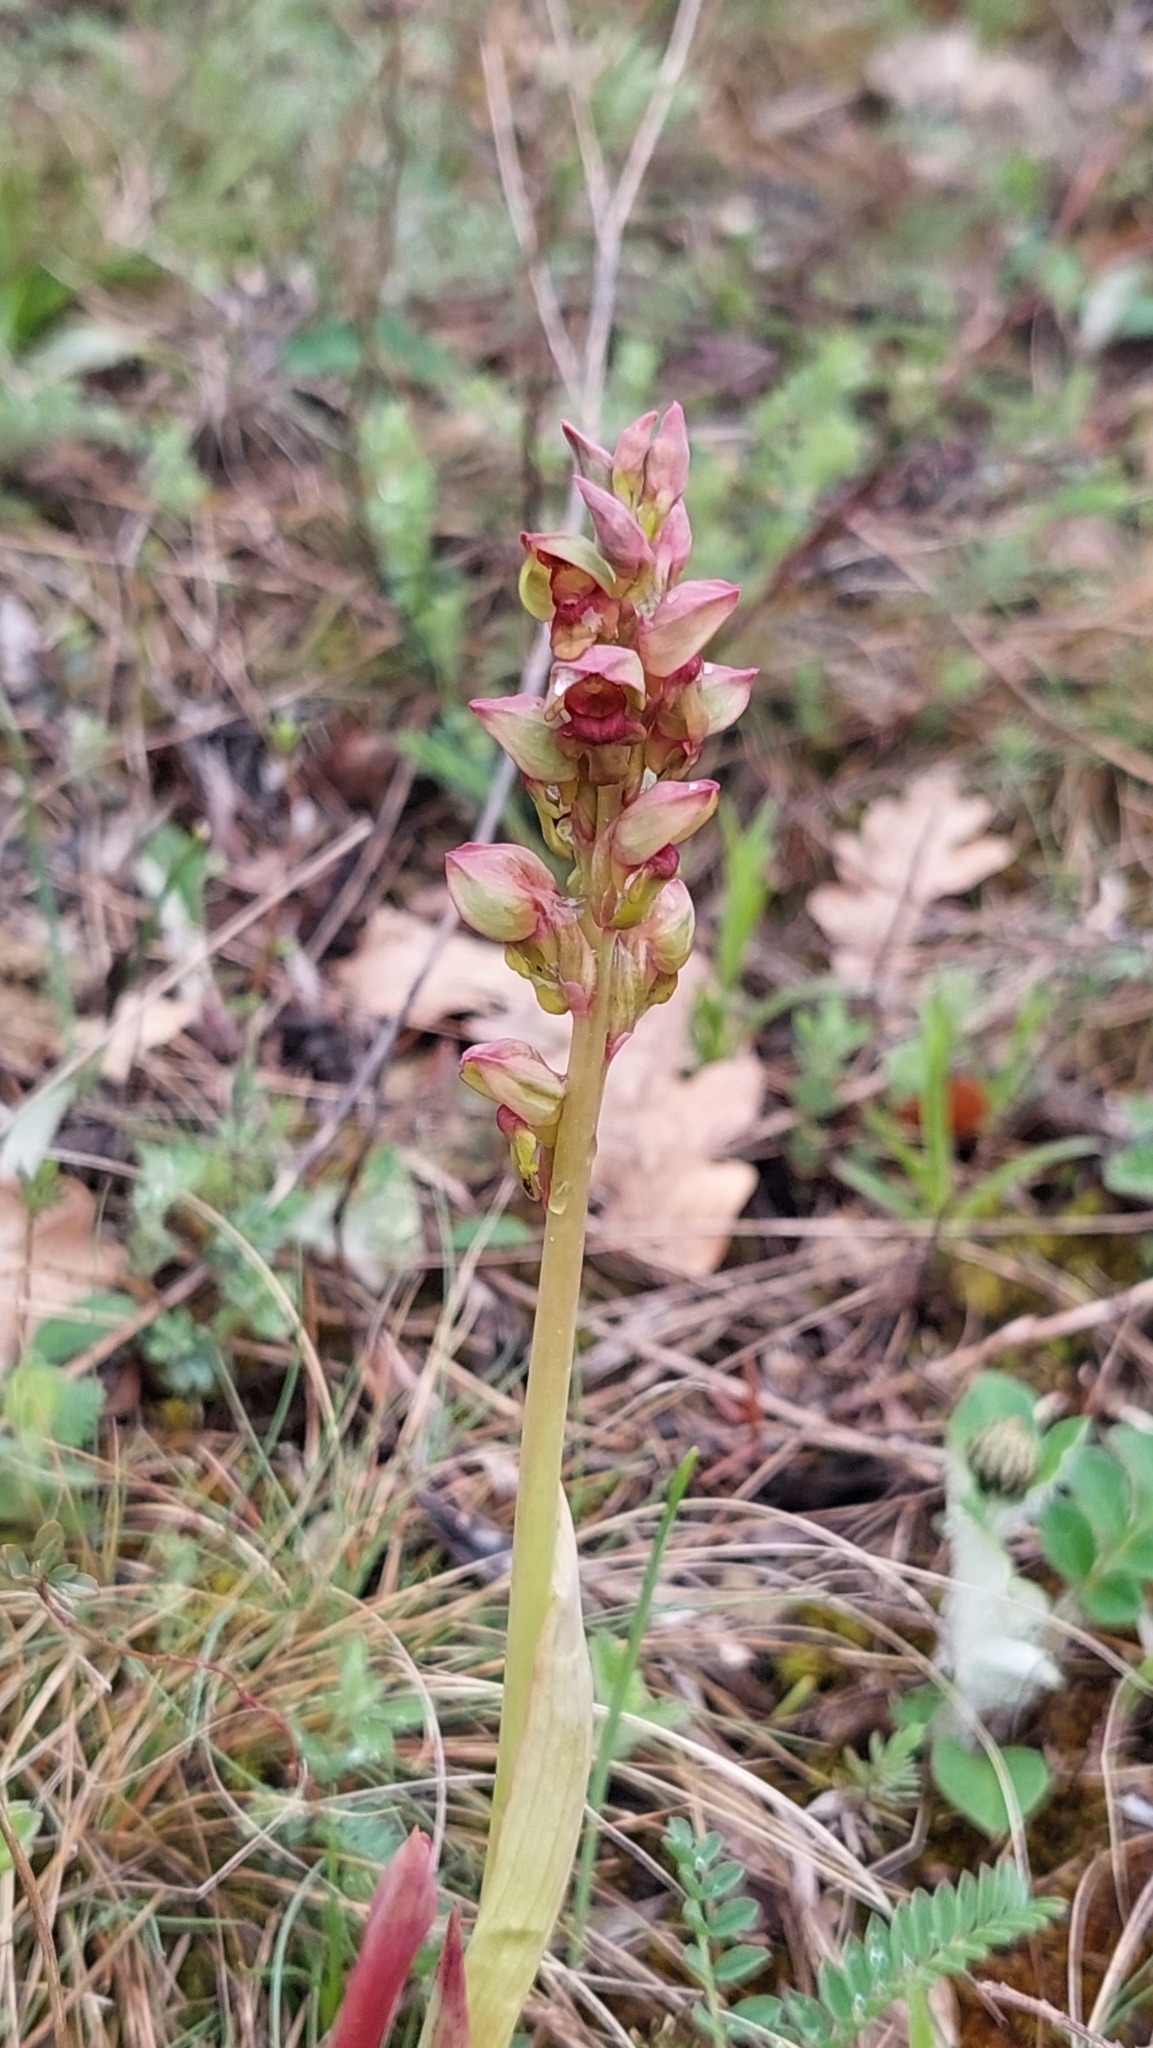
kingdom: Plantae
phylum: Tracheophyta
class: Liliopsida
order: Asparagales
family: Orchidaceae
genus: Steveniella
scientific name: Steveniella satyrioides
